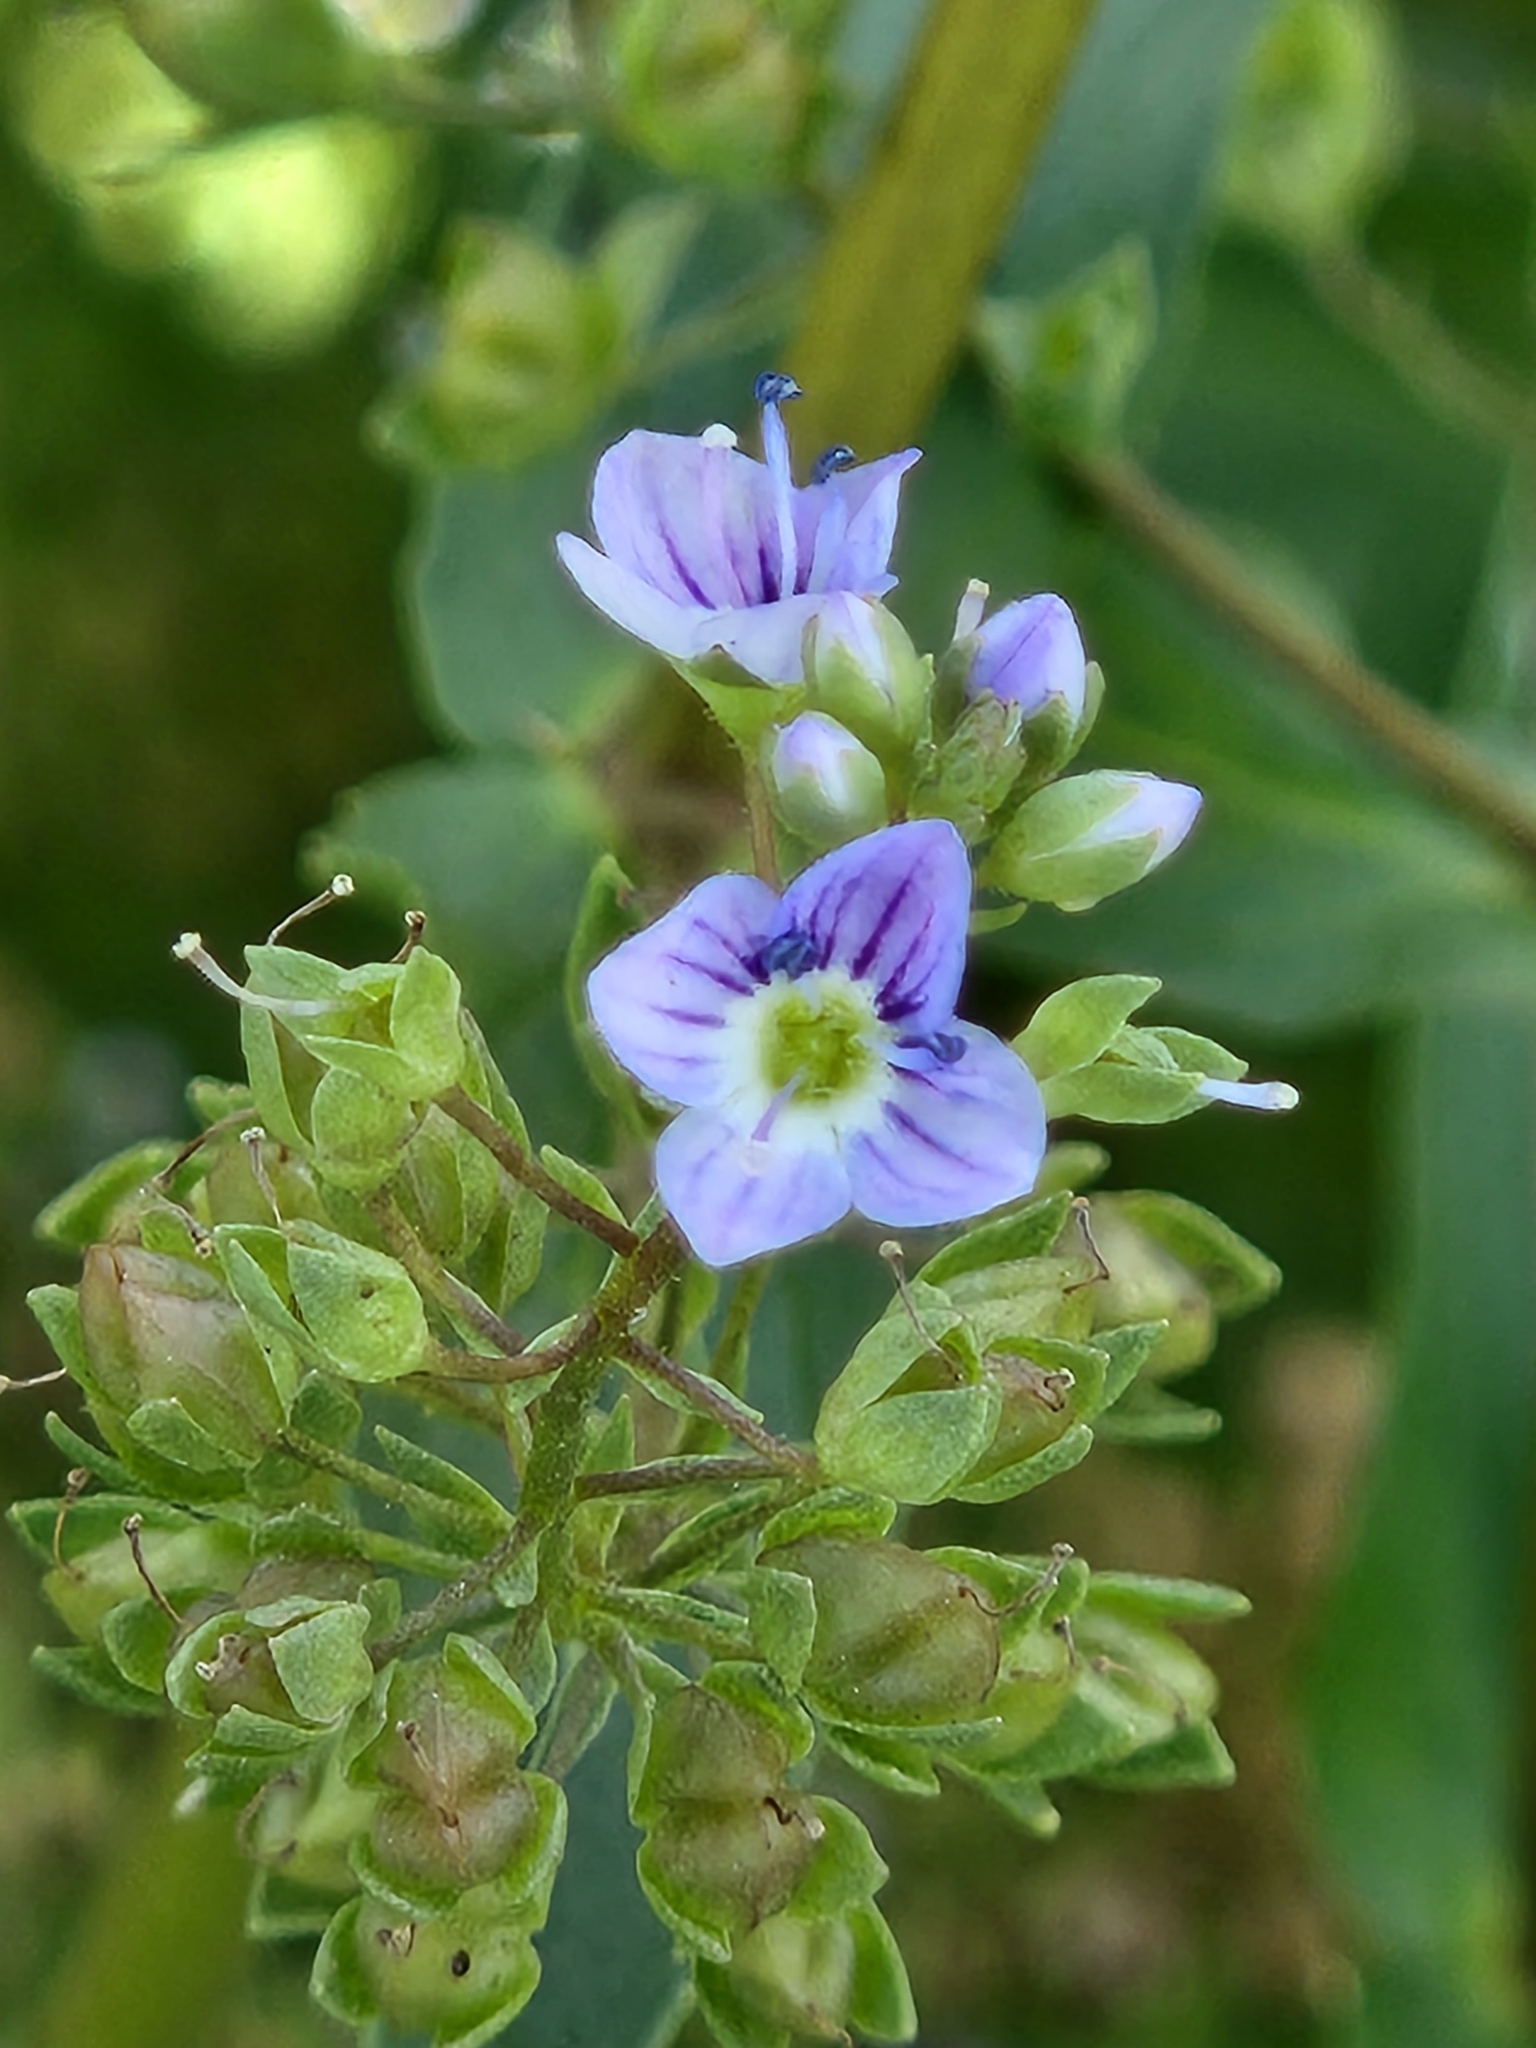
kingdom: Plantae
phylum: Tracheophyta
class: Magnoliopsida
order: Lamiales
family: Plantaginaceae
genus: Veronica
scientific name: Veronica anagallis-aquatica
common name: Water speedwell
